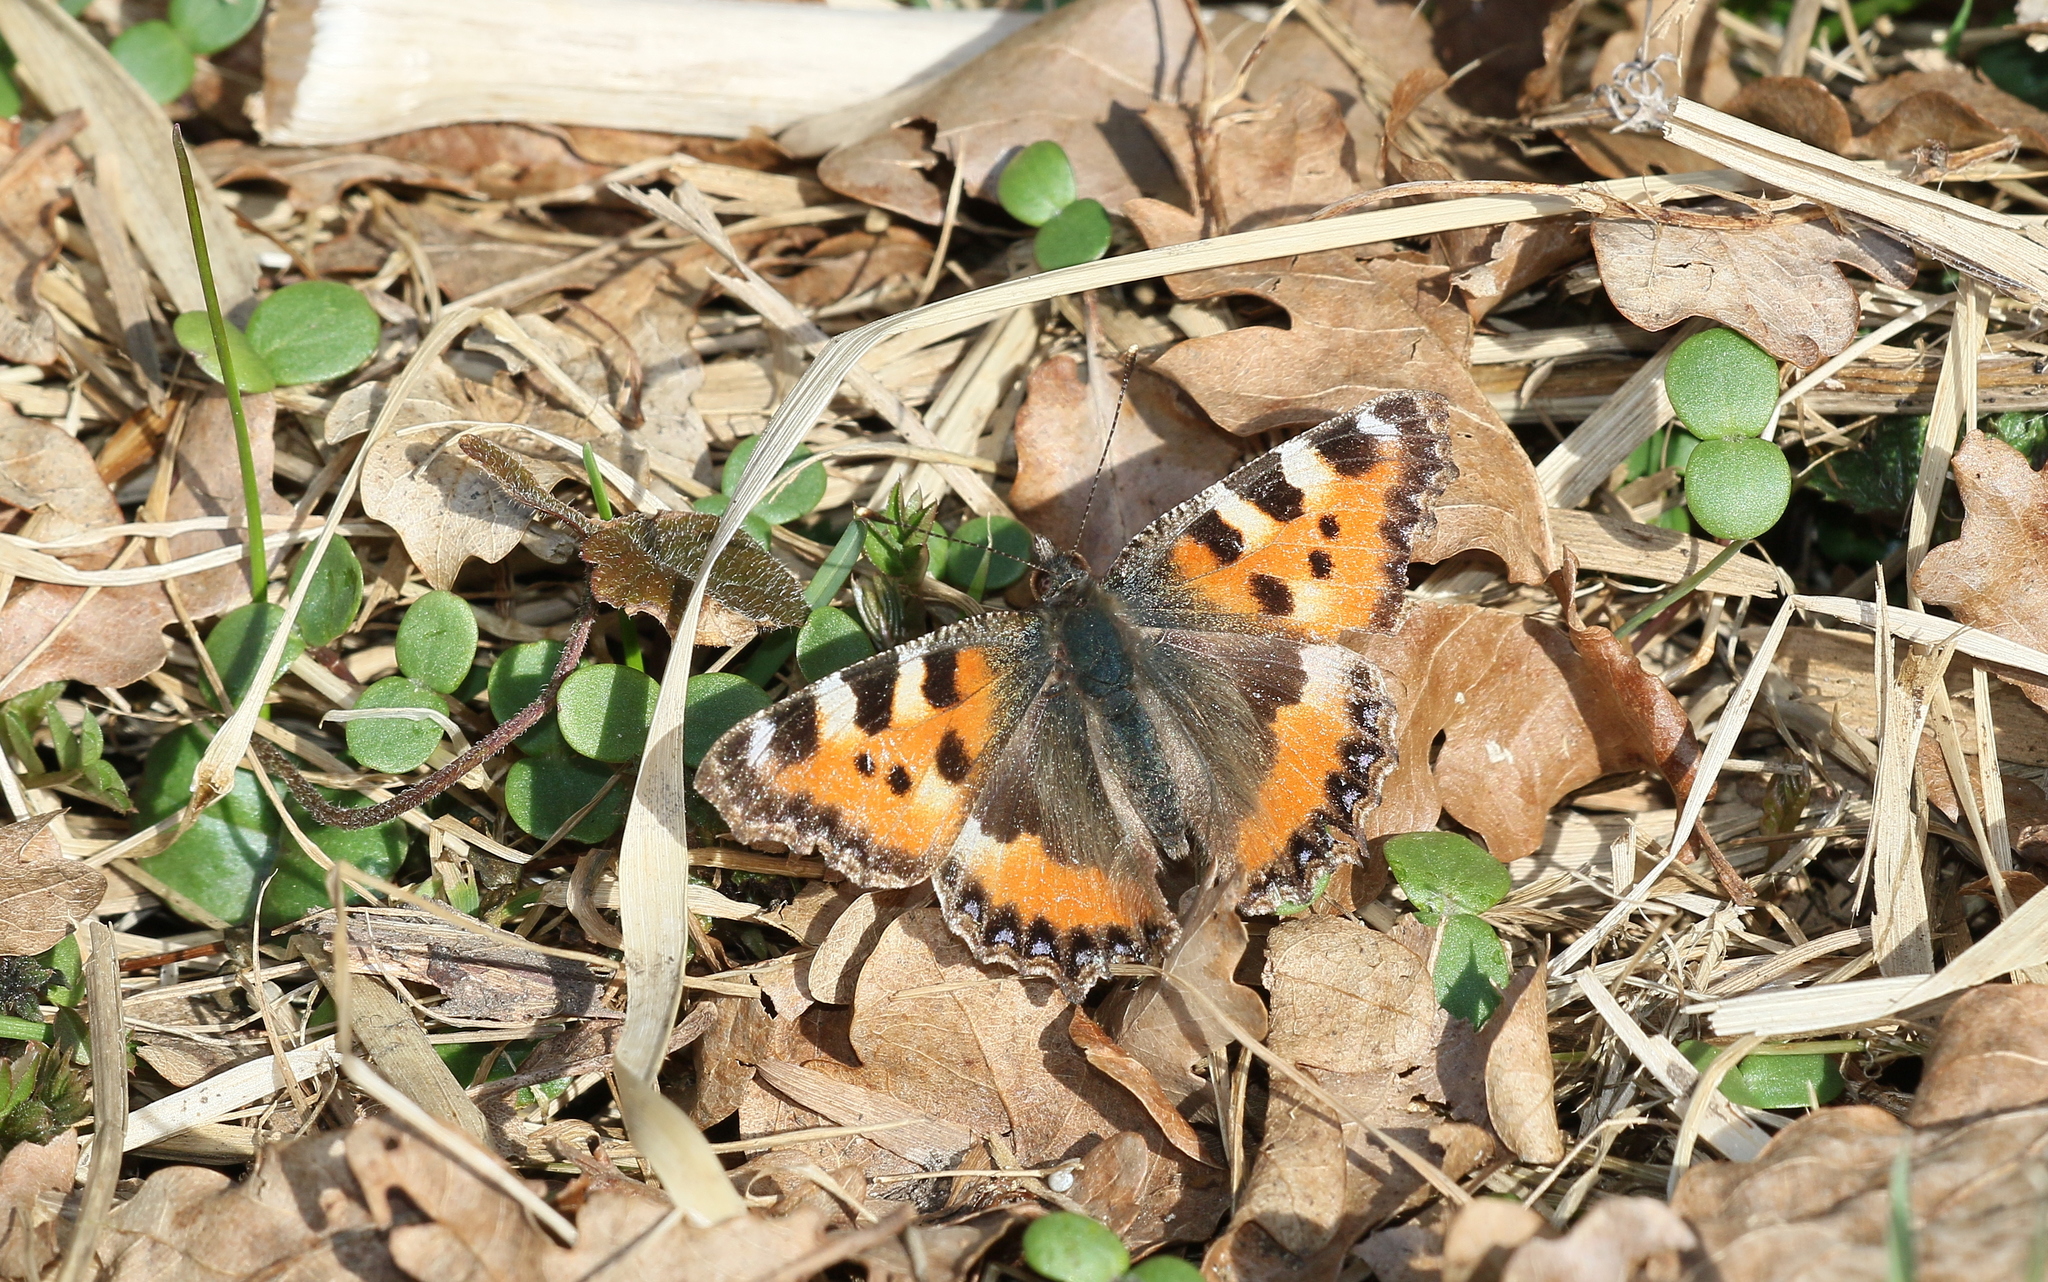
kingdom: Animalia
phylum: Arthropoda
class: Insecta
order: Lepidoptera
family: Nymphalidae
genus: Aglais
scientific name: Aglais urticae
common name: Small tortoiseshell
